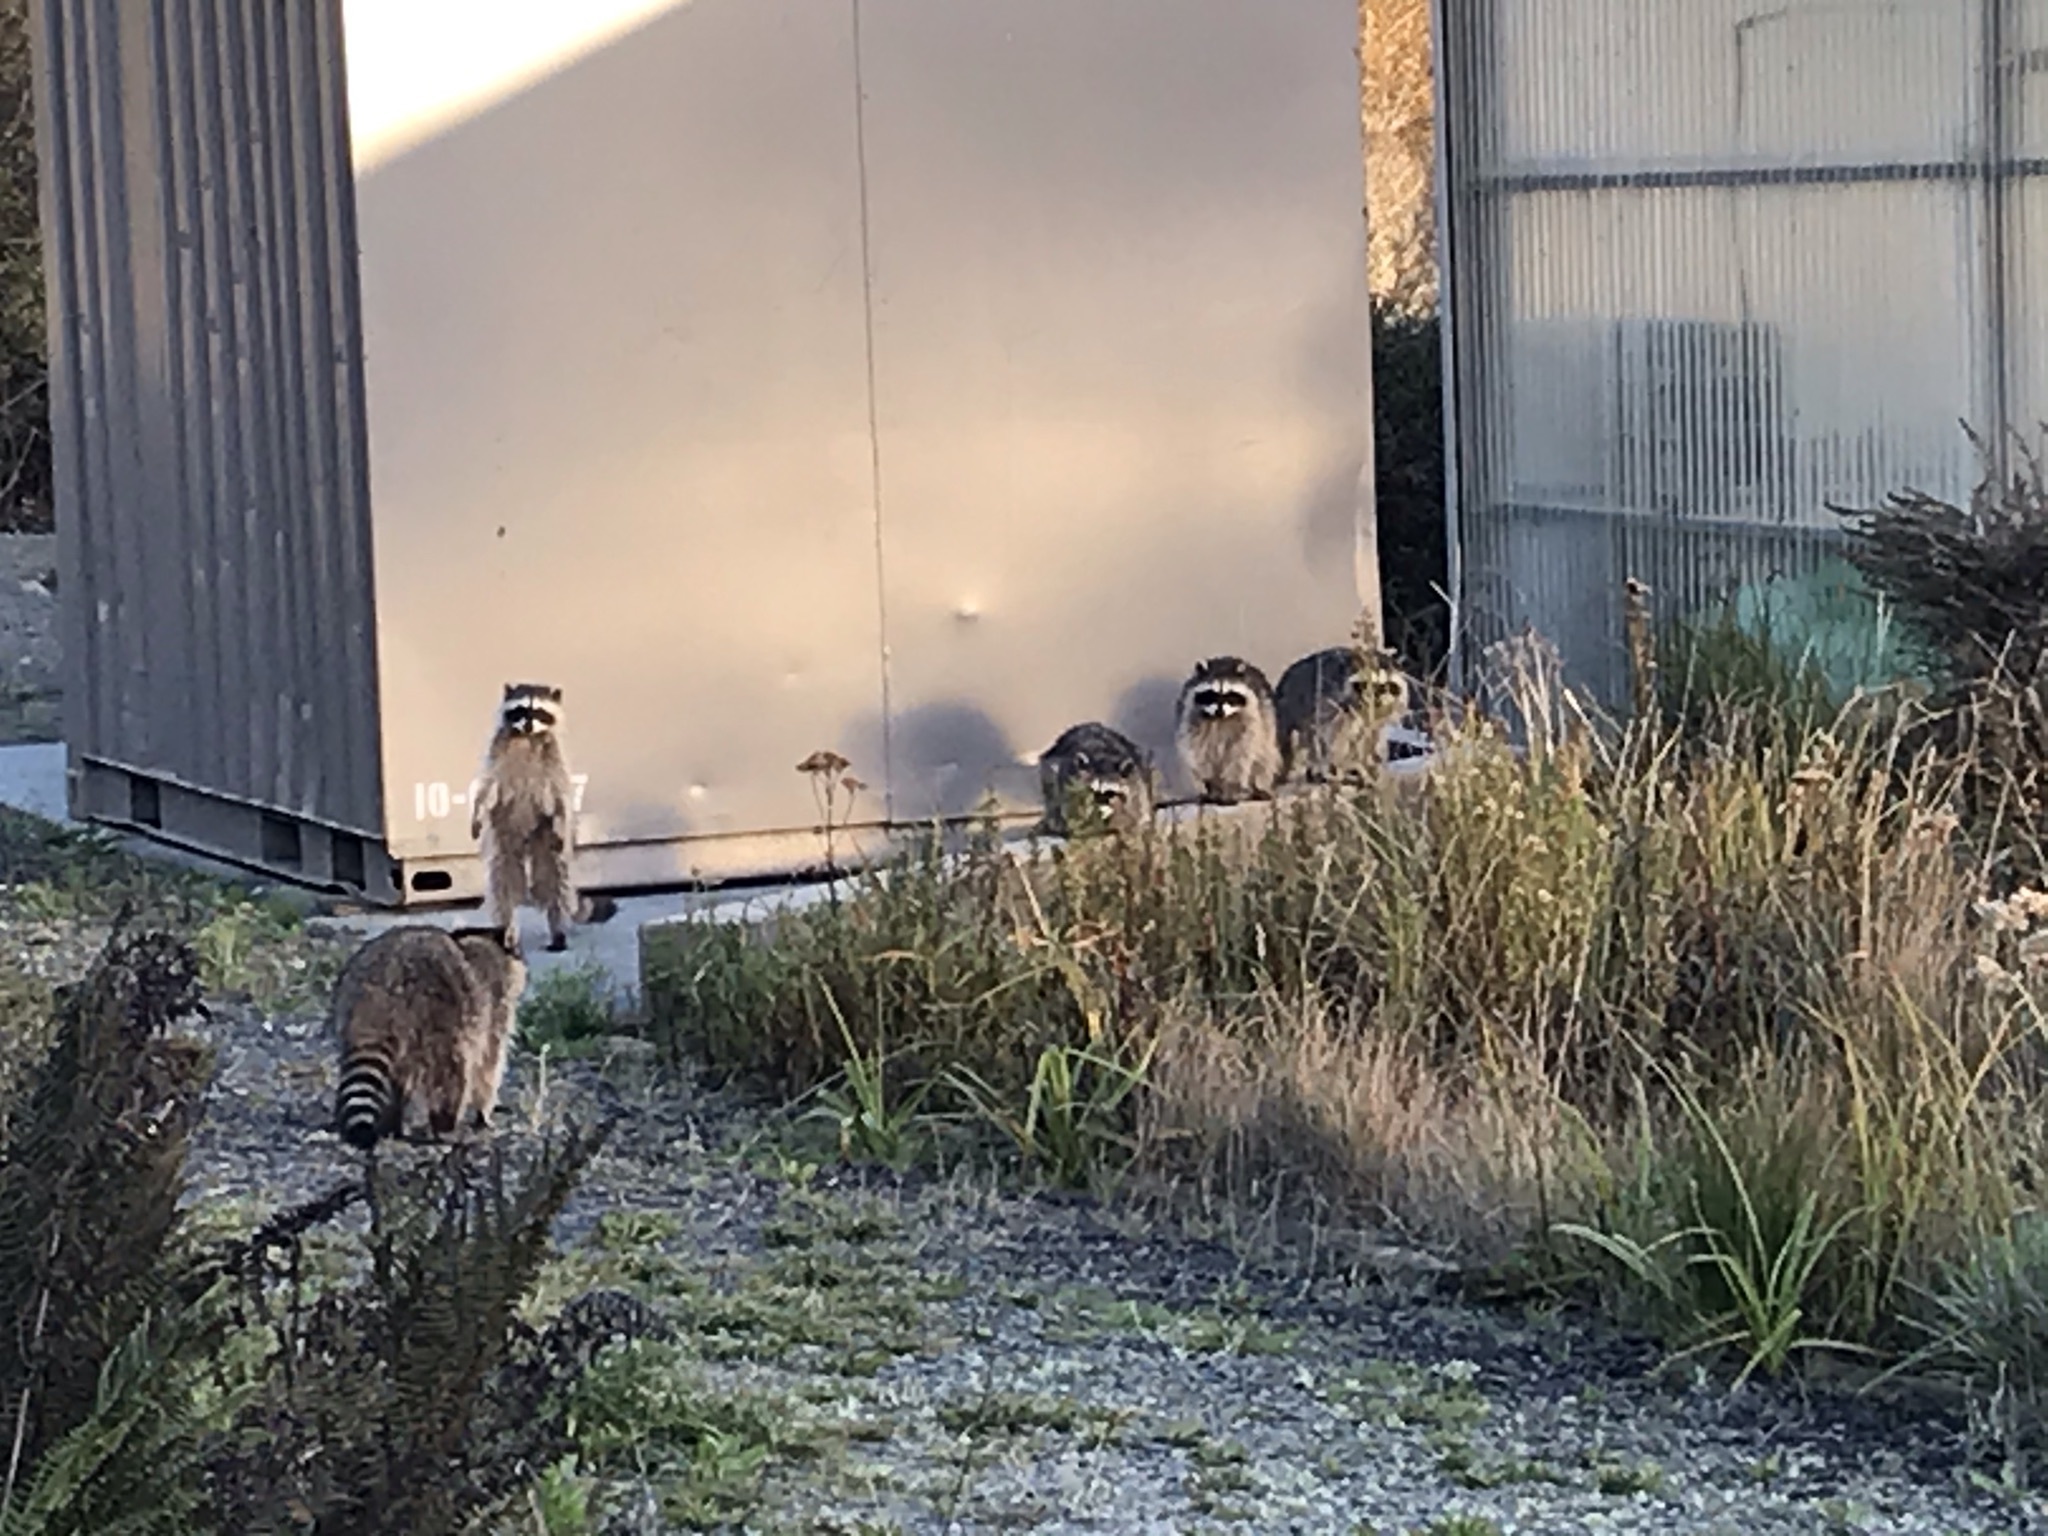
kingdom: Animalia
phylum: Chordata
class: Mammalia
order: Carnivora
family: Procyonidae
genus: Procyon
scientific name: Procyon lotor
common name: Raccoon
